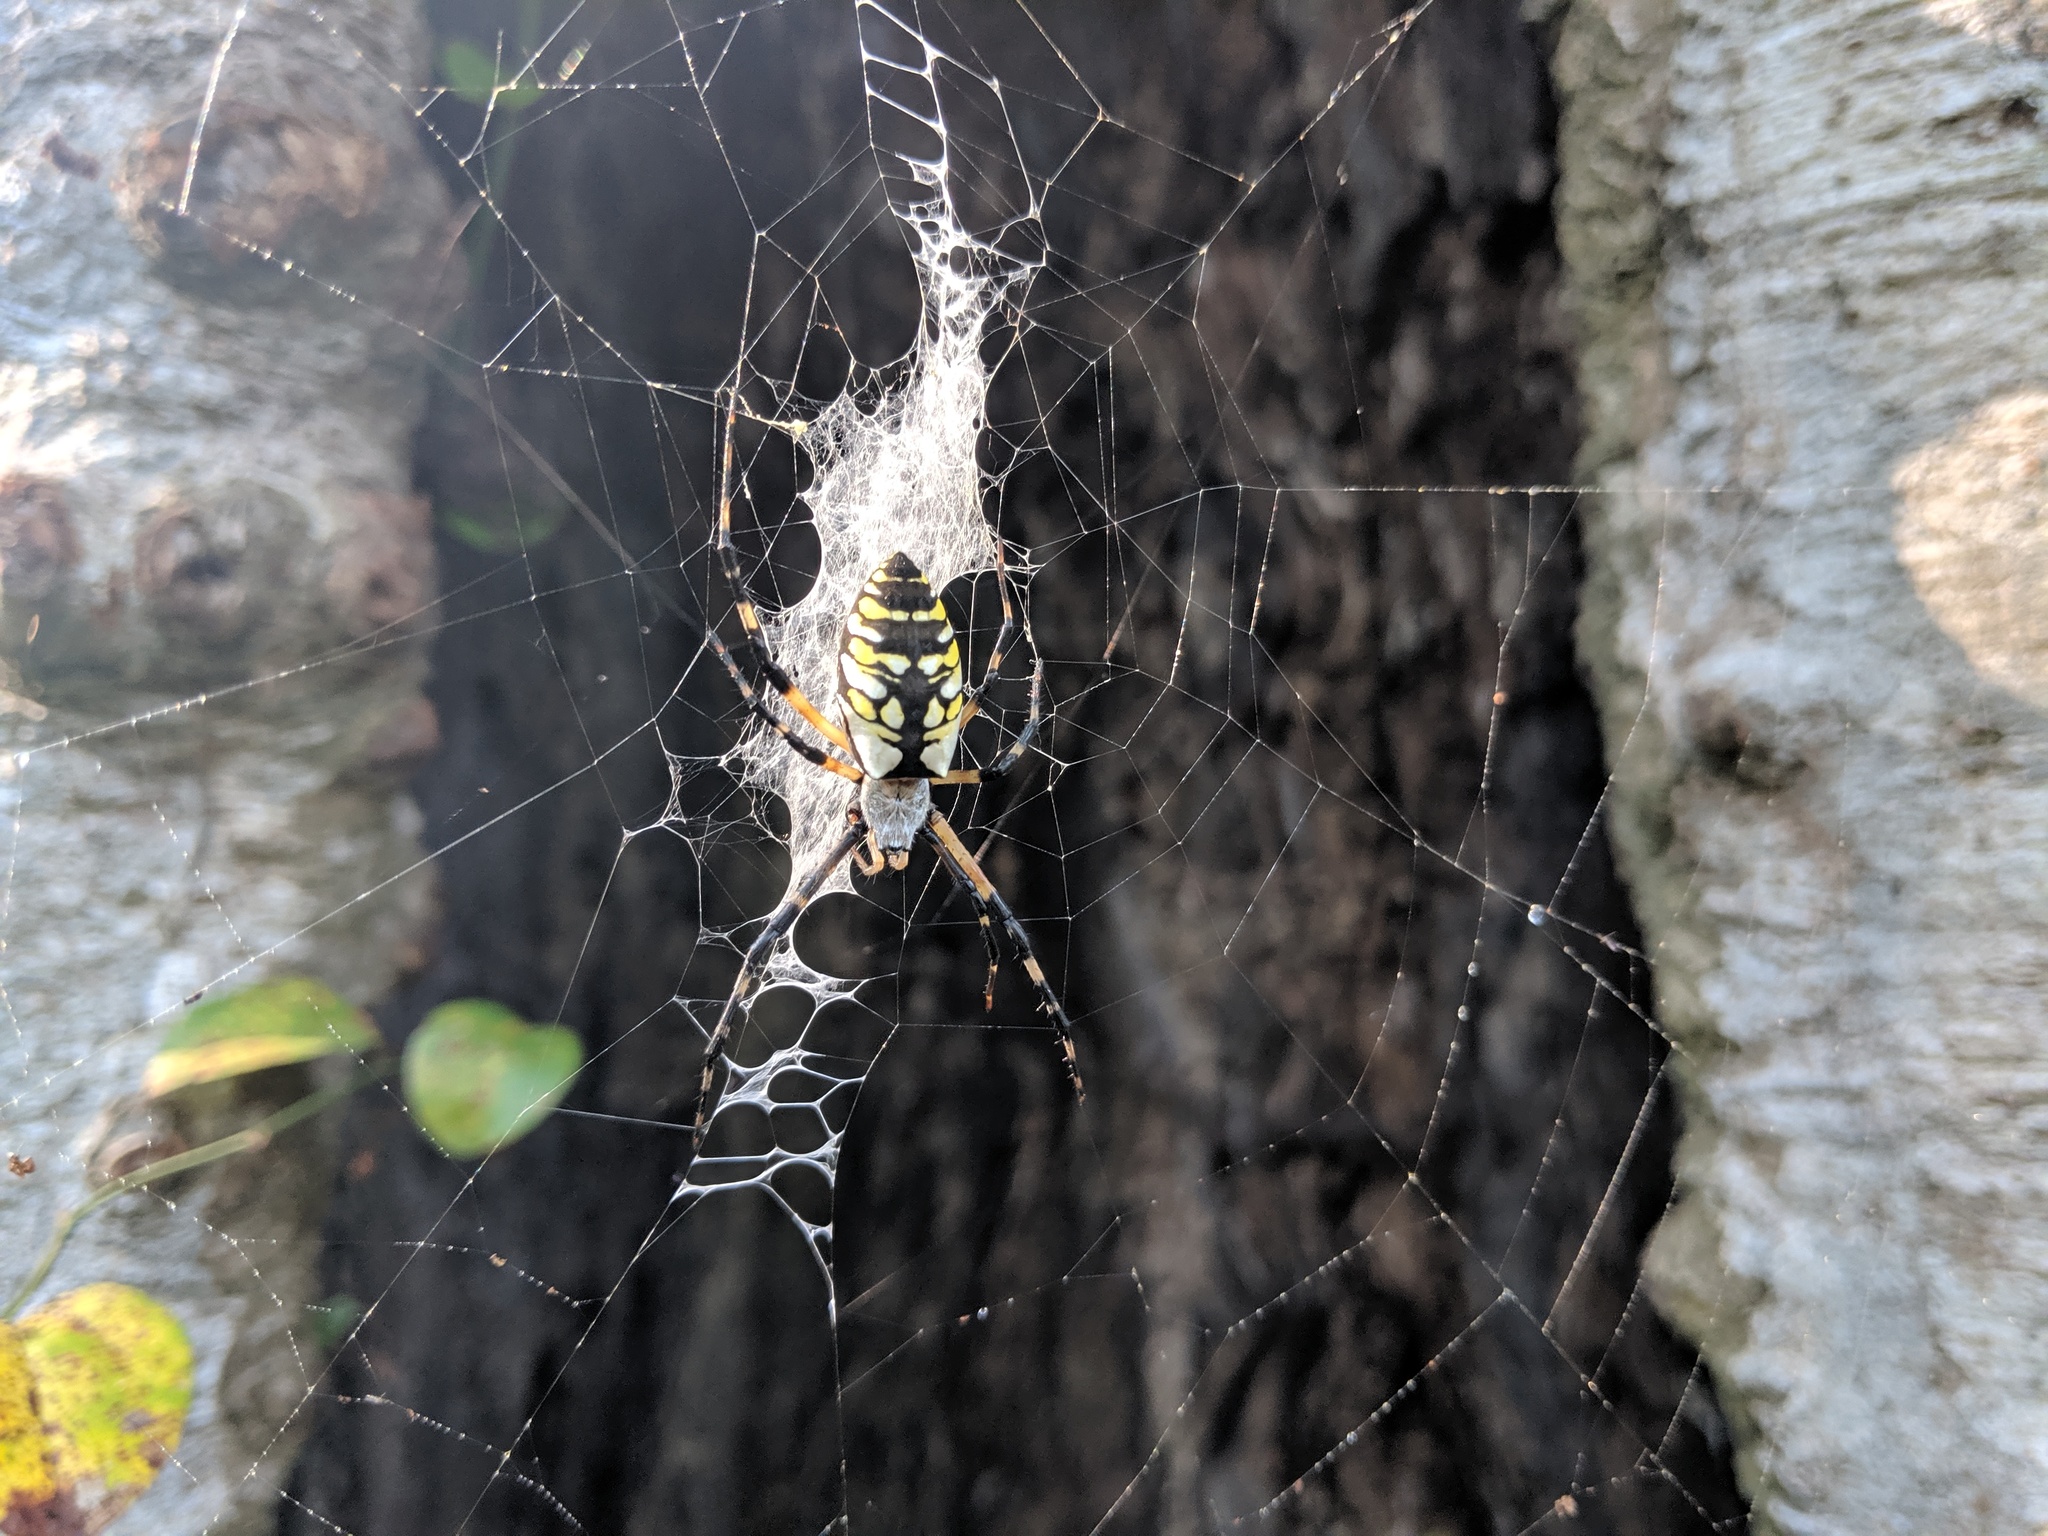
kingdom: Animalia
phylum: Arthropoda
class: Arachnida
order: Araneae
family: Araneidae
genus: Argiope
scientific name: Argiope aurantia
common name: Orb weavers
